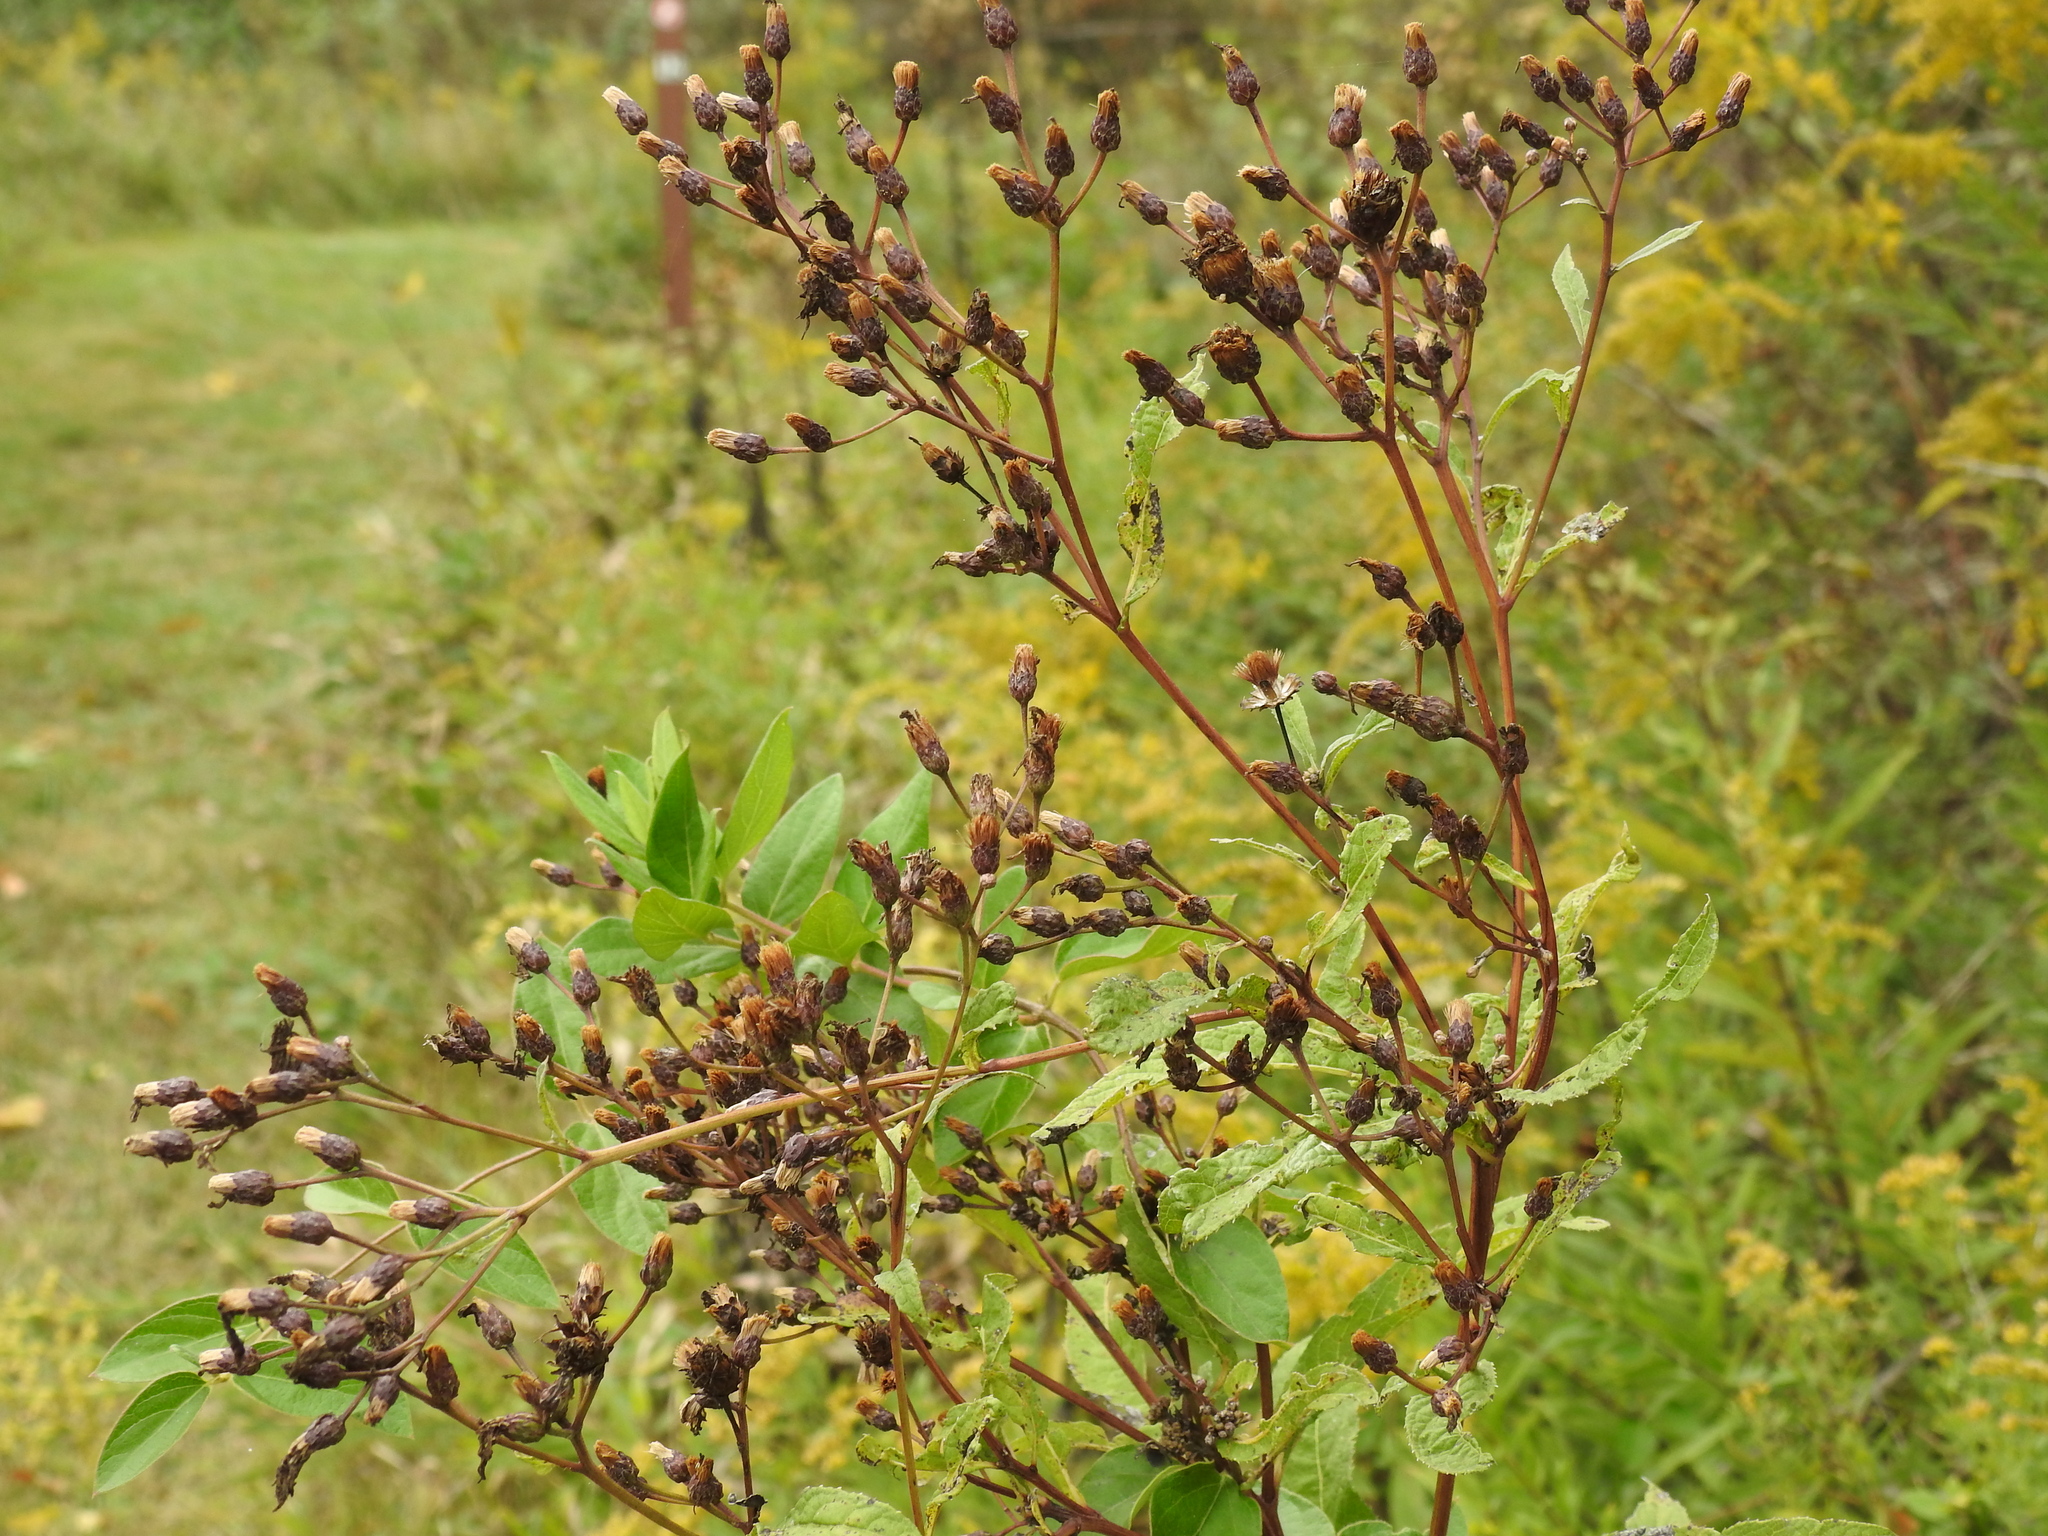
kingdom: Plantae
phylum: Tracheophyta
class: Magnoliopsida
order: Asterales
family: Asteraceae
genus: Vernonia
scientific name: Vernonia gigantea
